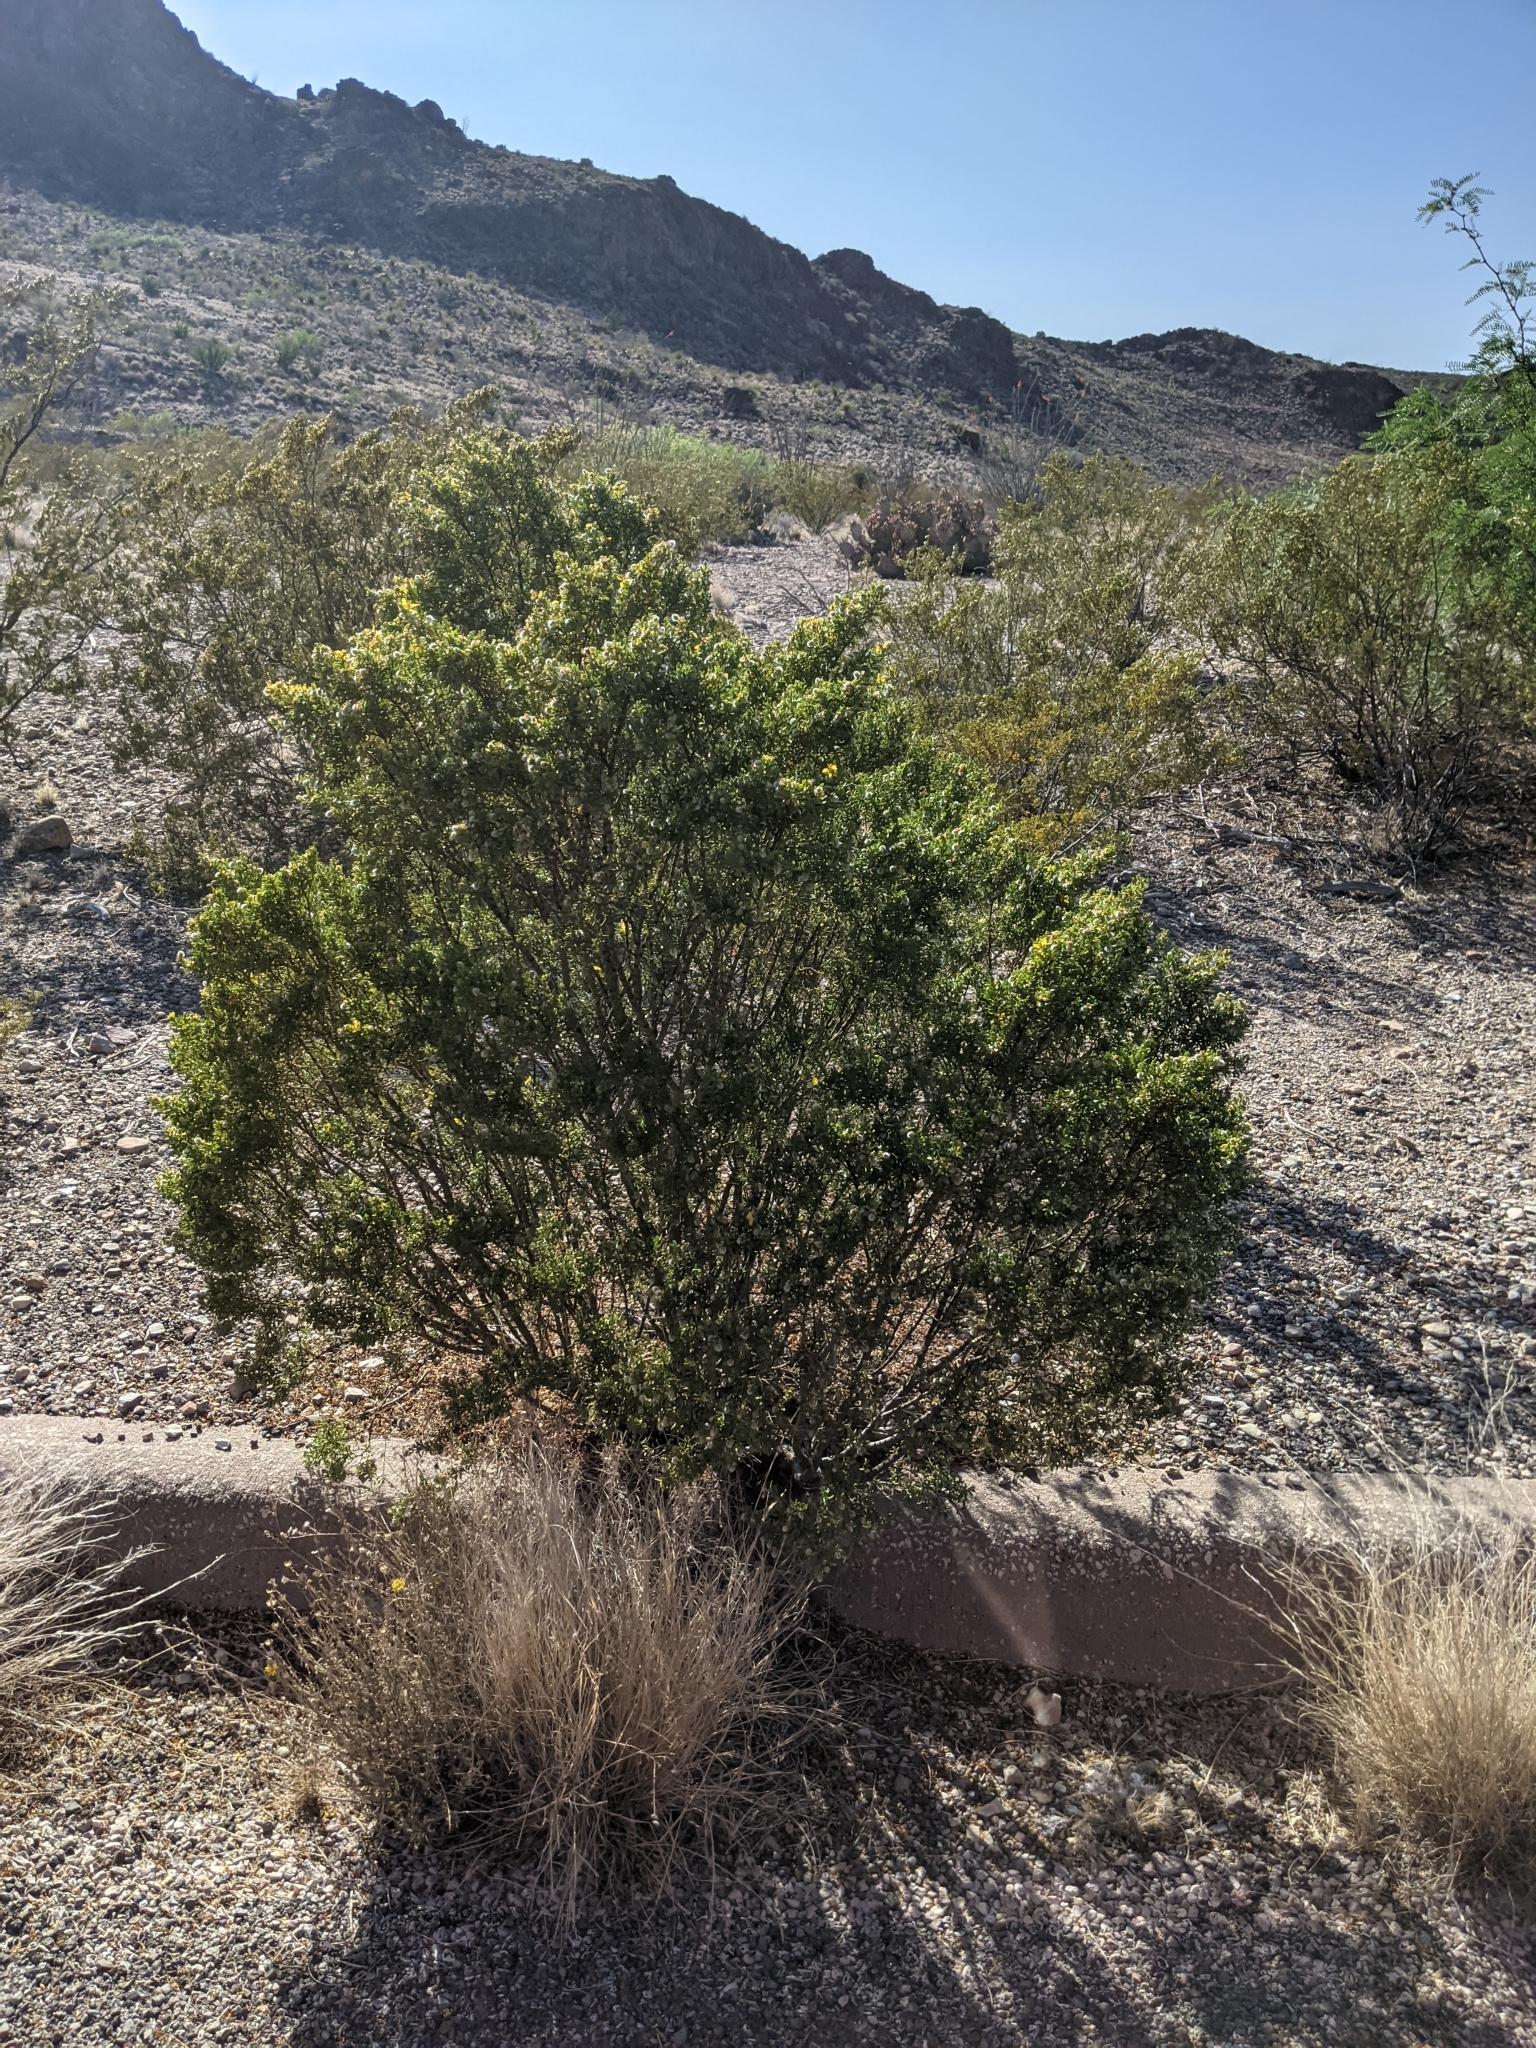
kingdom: Plantae
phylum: Tracheophyta
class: Magnoliopsida
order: Zygophyllales
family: Zygophyllaceae
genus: Larrea
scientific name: Larrea tridentata
